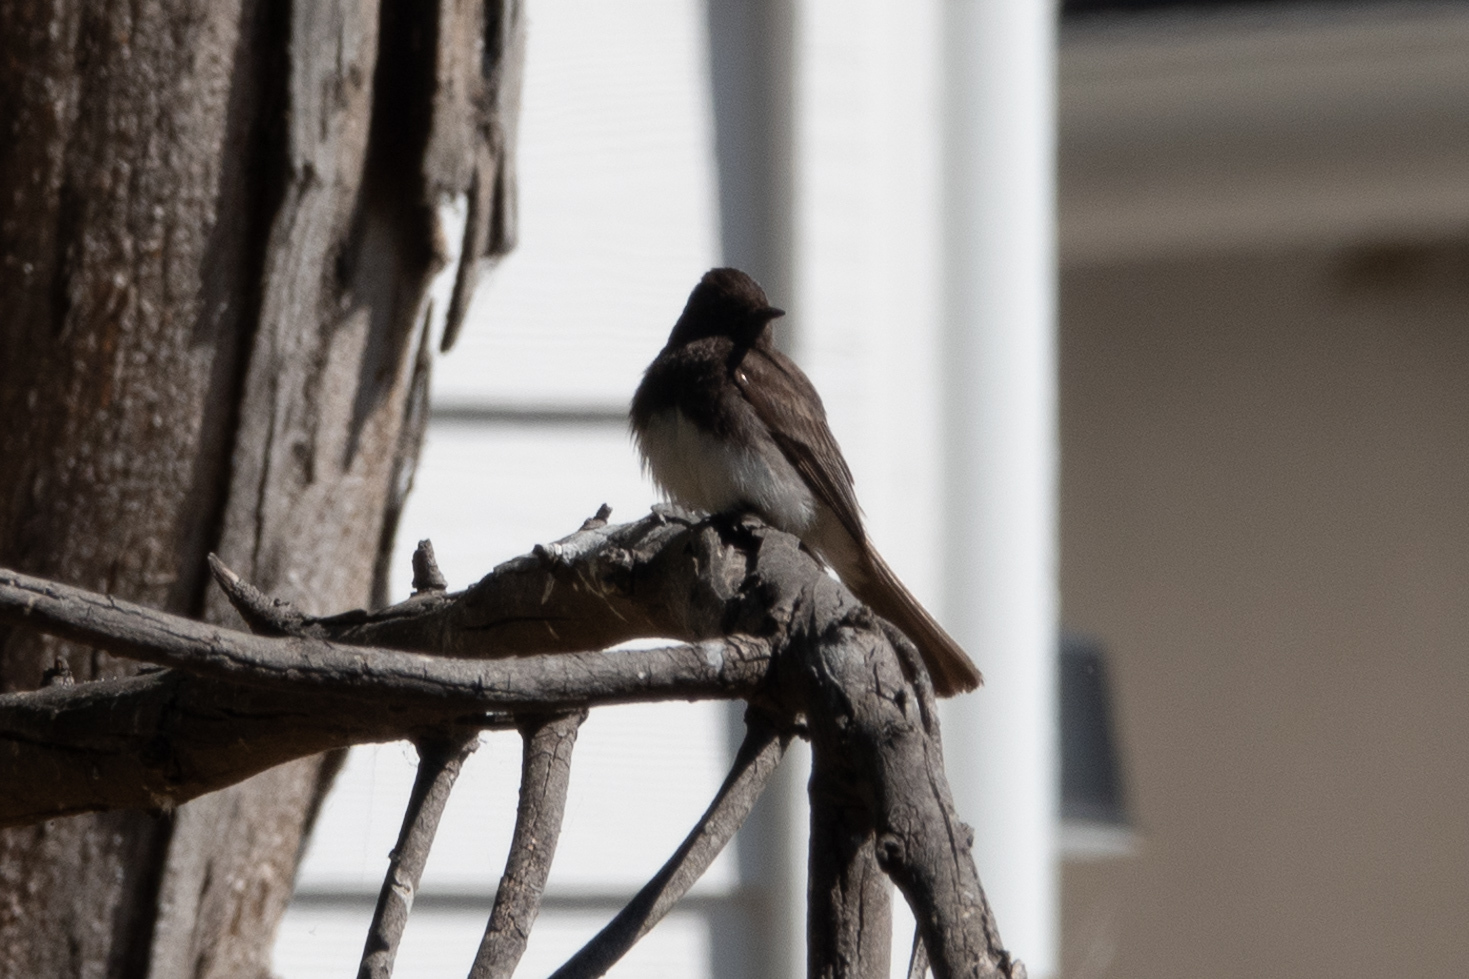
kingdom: Animalia
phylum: Chordata
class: Aves
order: Passeriformes
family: Tyrannidae
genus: Sayornis
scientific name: Sayornis nigricans
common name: Black phoebe
